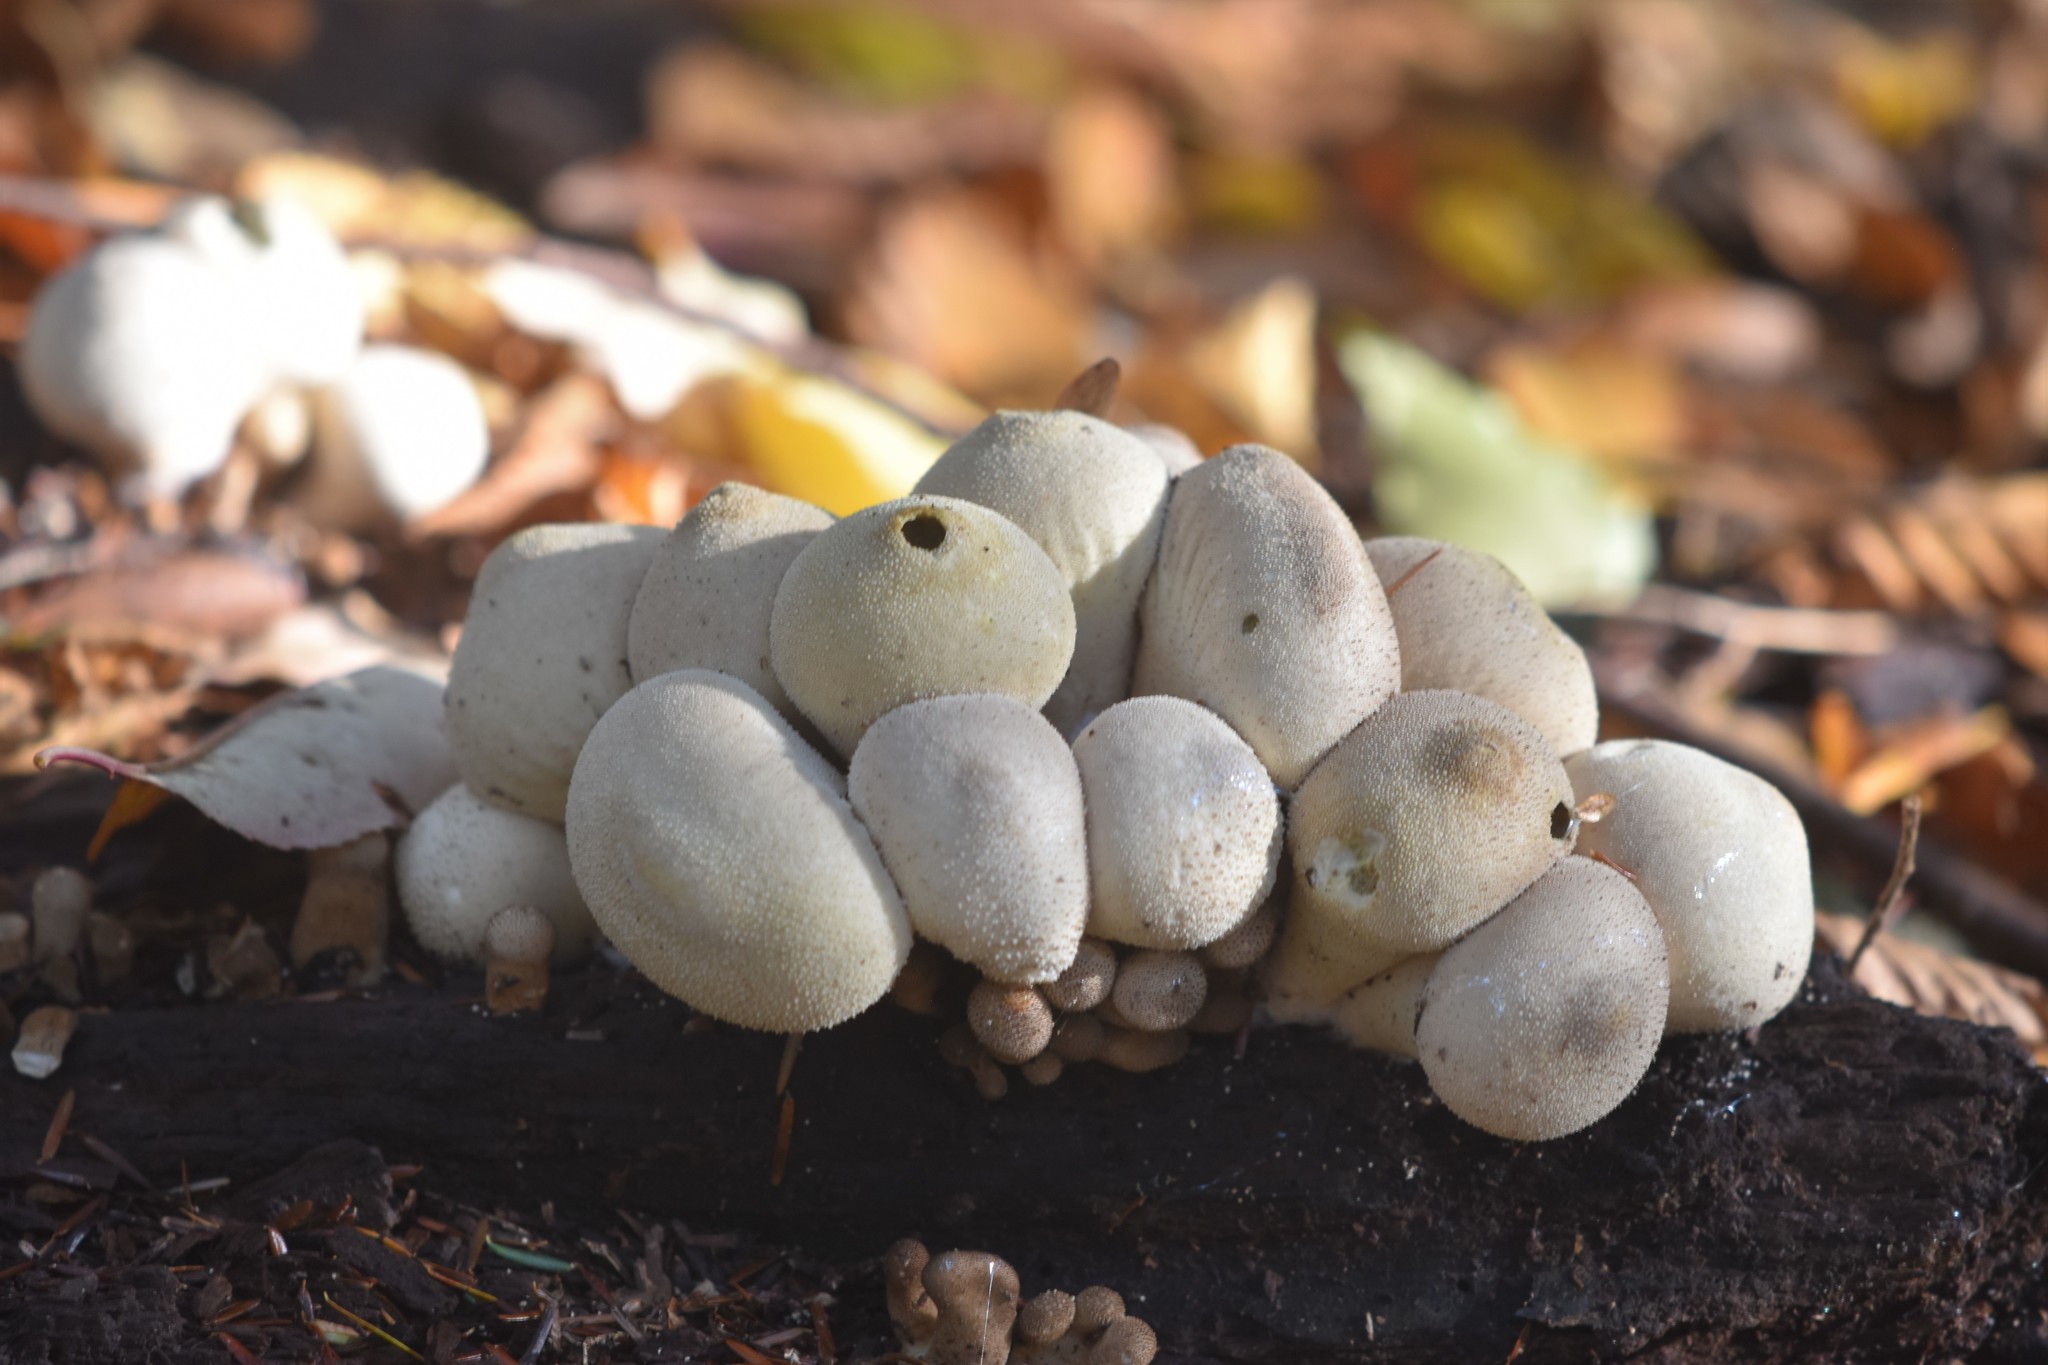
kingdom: Fungi
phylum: Basidiomycota
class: Agaricomycetes
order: Agaricales
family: Lycoperdaceae
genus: Apioperdon
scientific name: Apioperdon pyriforme
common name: Pear-shaped puffball
